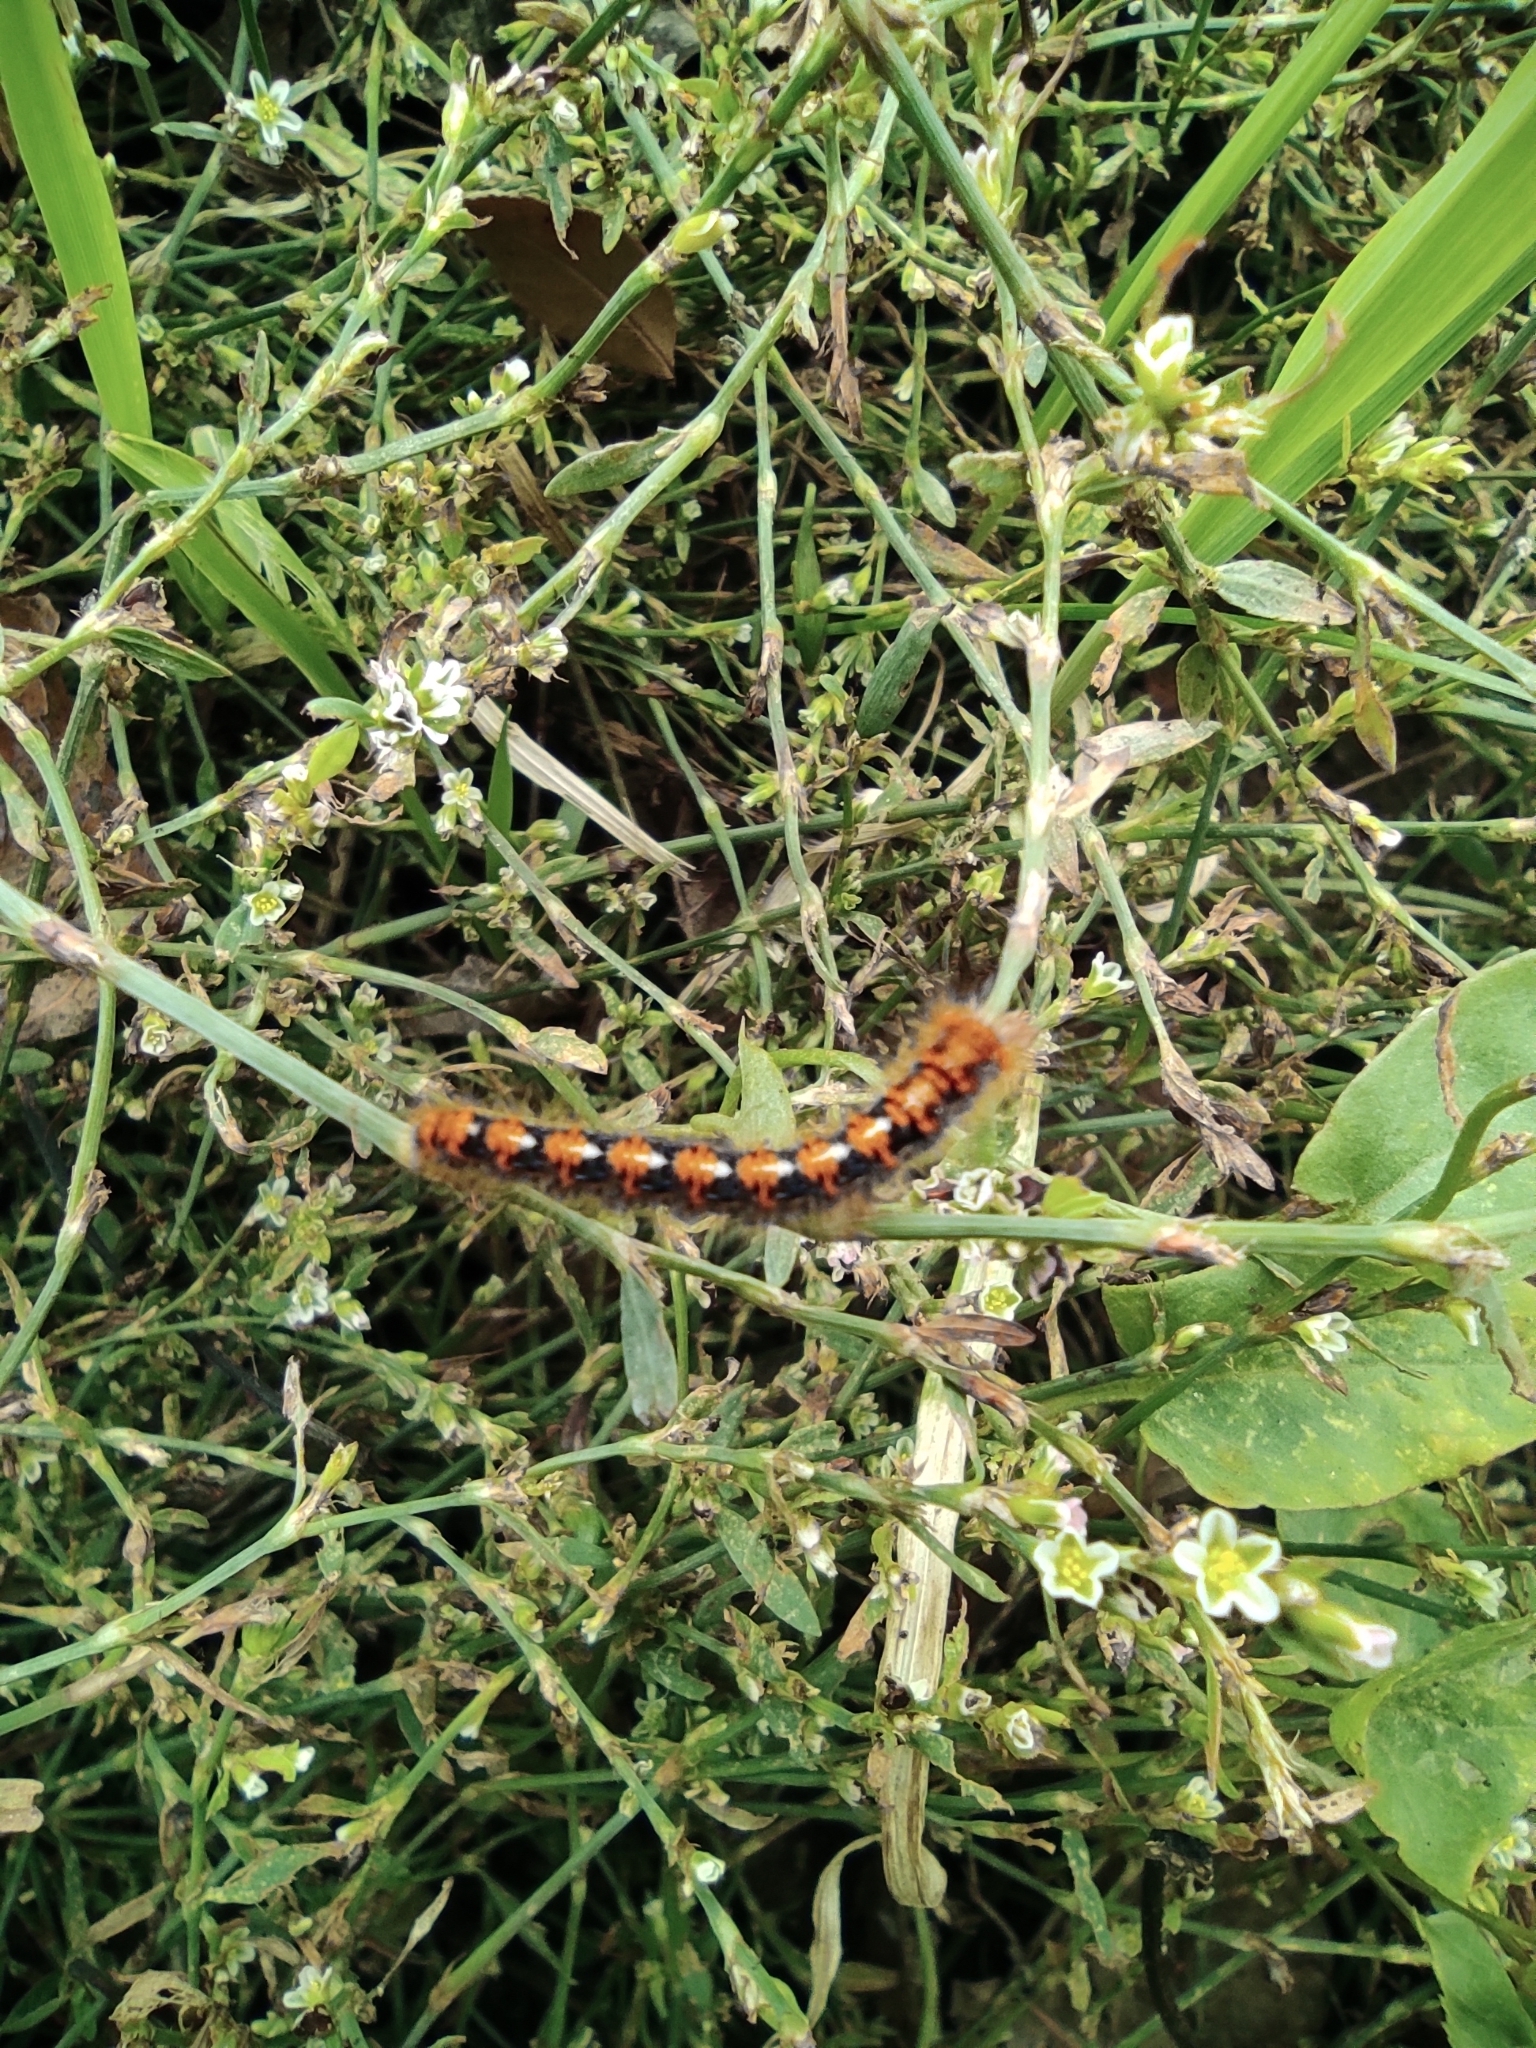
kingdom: Animalia
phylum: Arthropoda
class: Insecta
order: Lepidoptera
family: Lasiocampidae
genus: Lasiocampa
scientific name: Lasiocampa quercus
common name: Oak eggar
